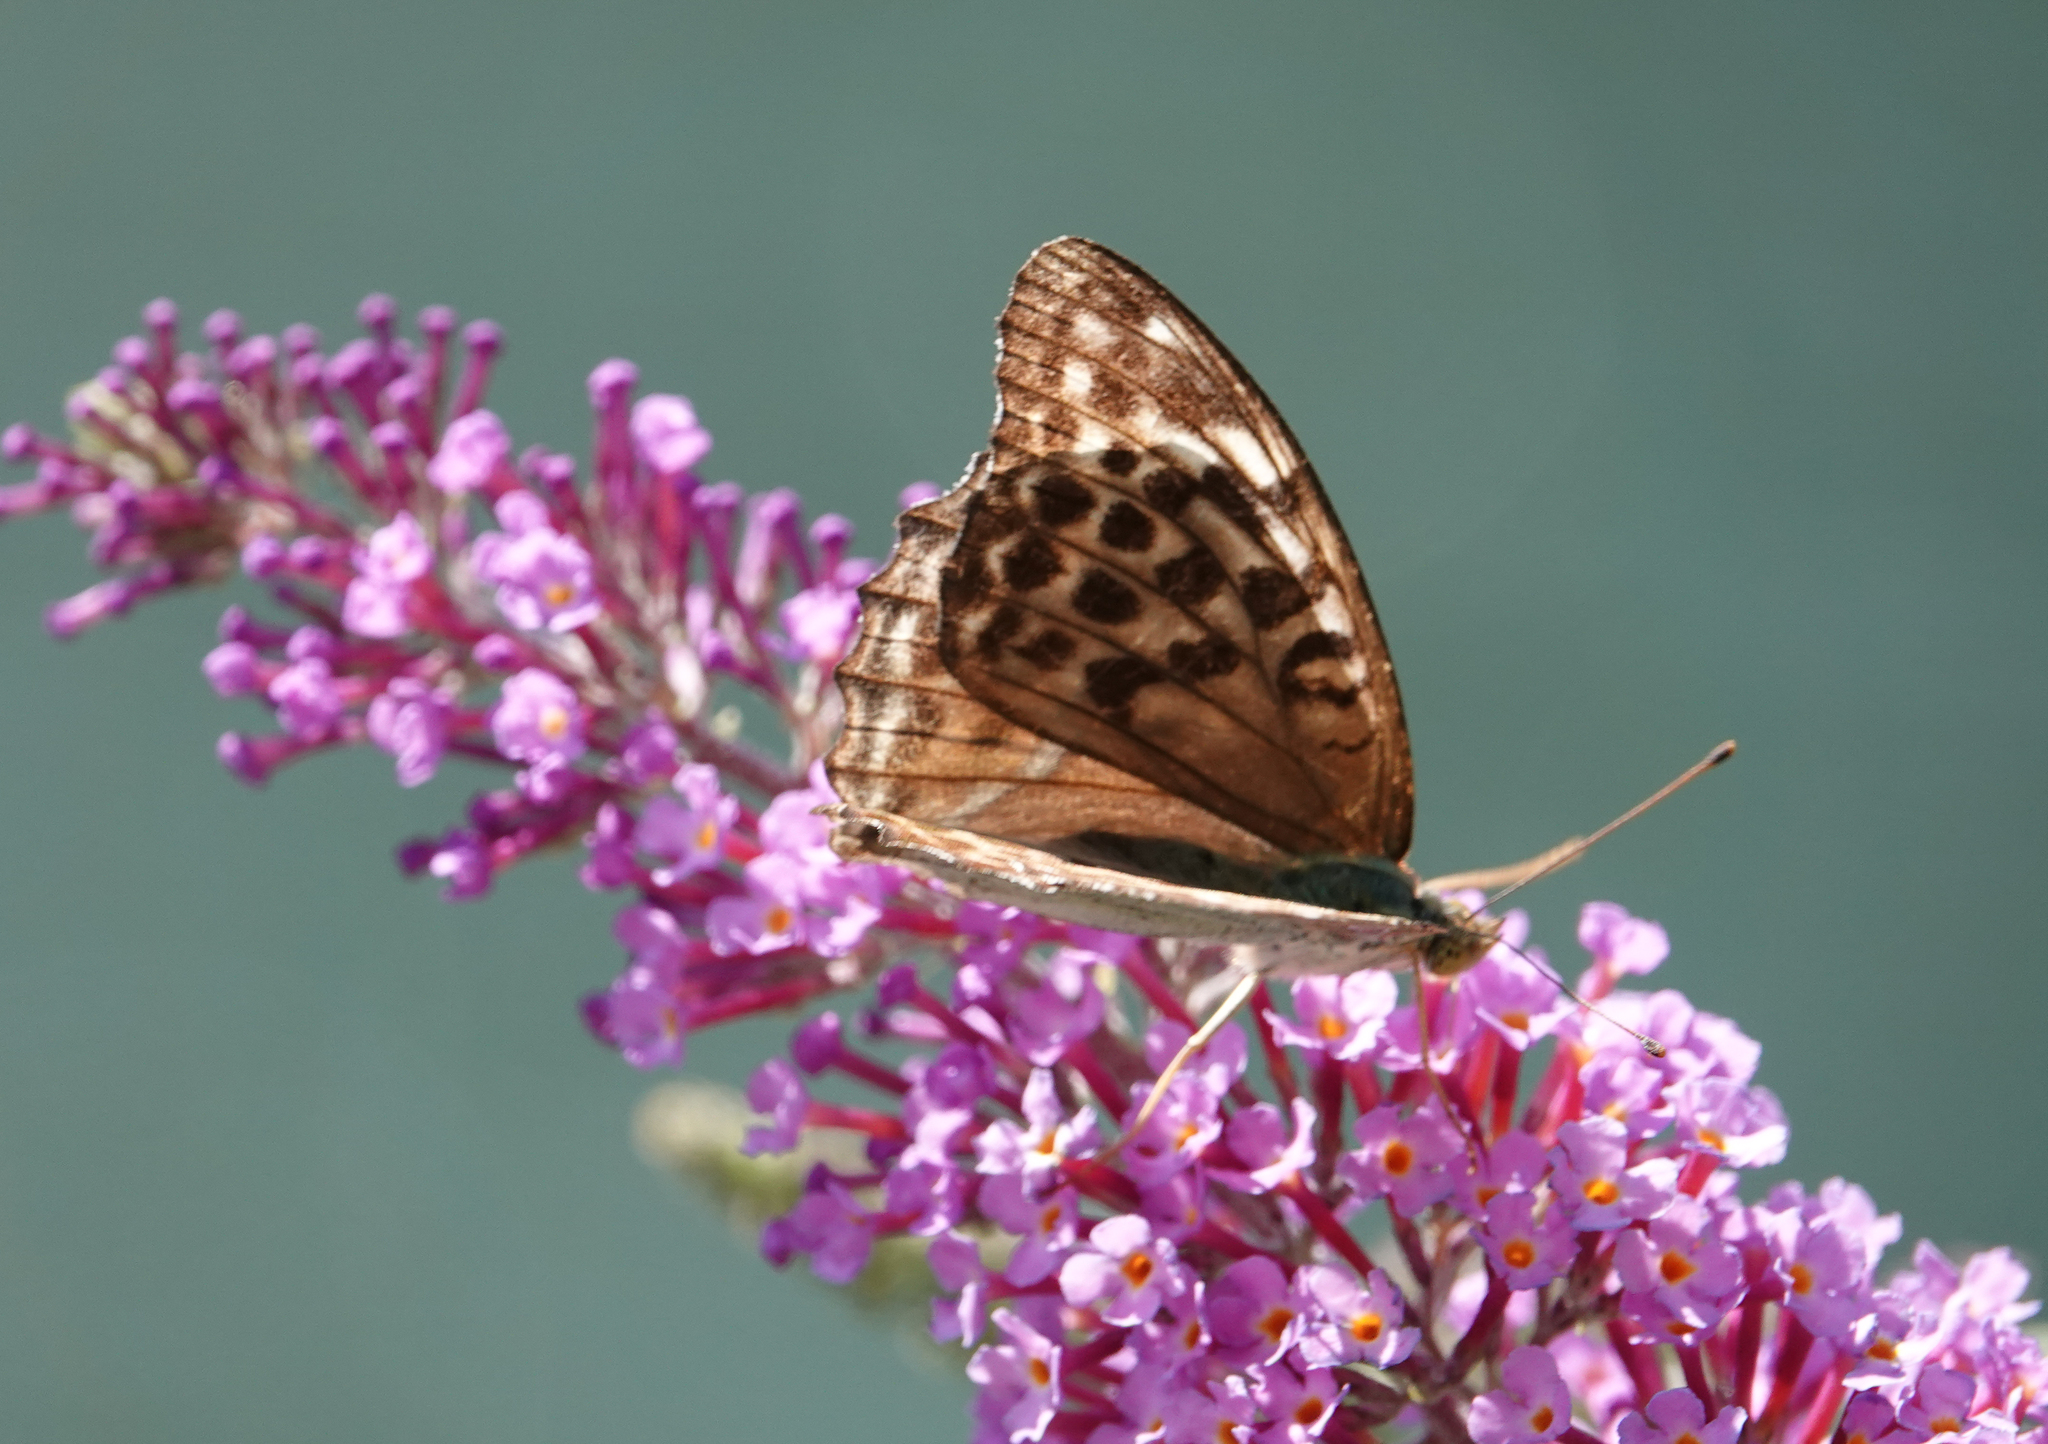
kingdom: Animalia
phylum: Arthropoda
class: Insecta
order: Lepidoptera
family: Nymphalidae
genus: Argynnis
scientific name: Argynnis paphia
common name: Silver-washed fritillary
